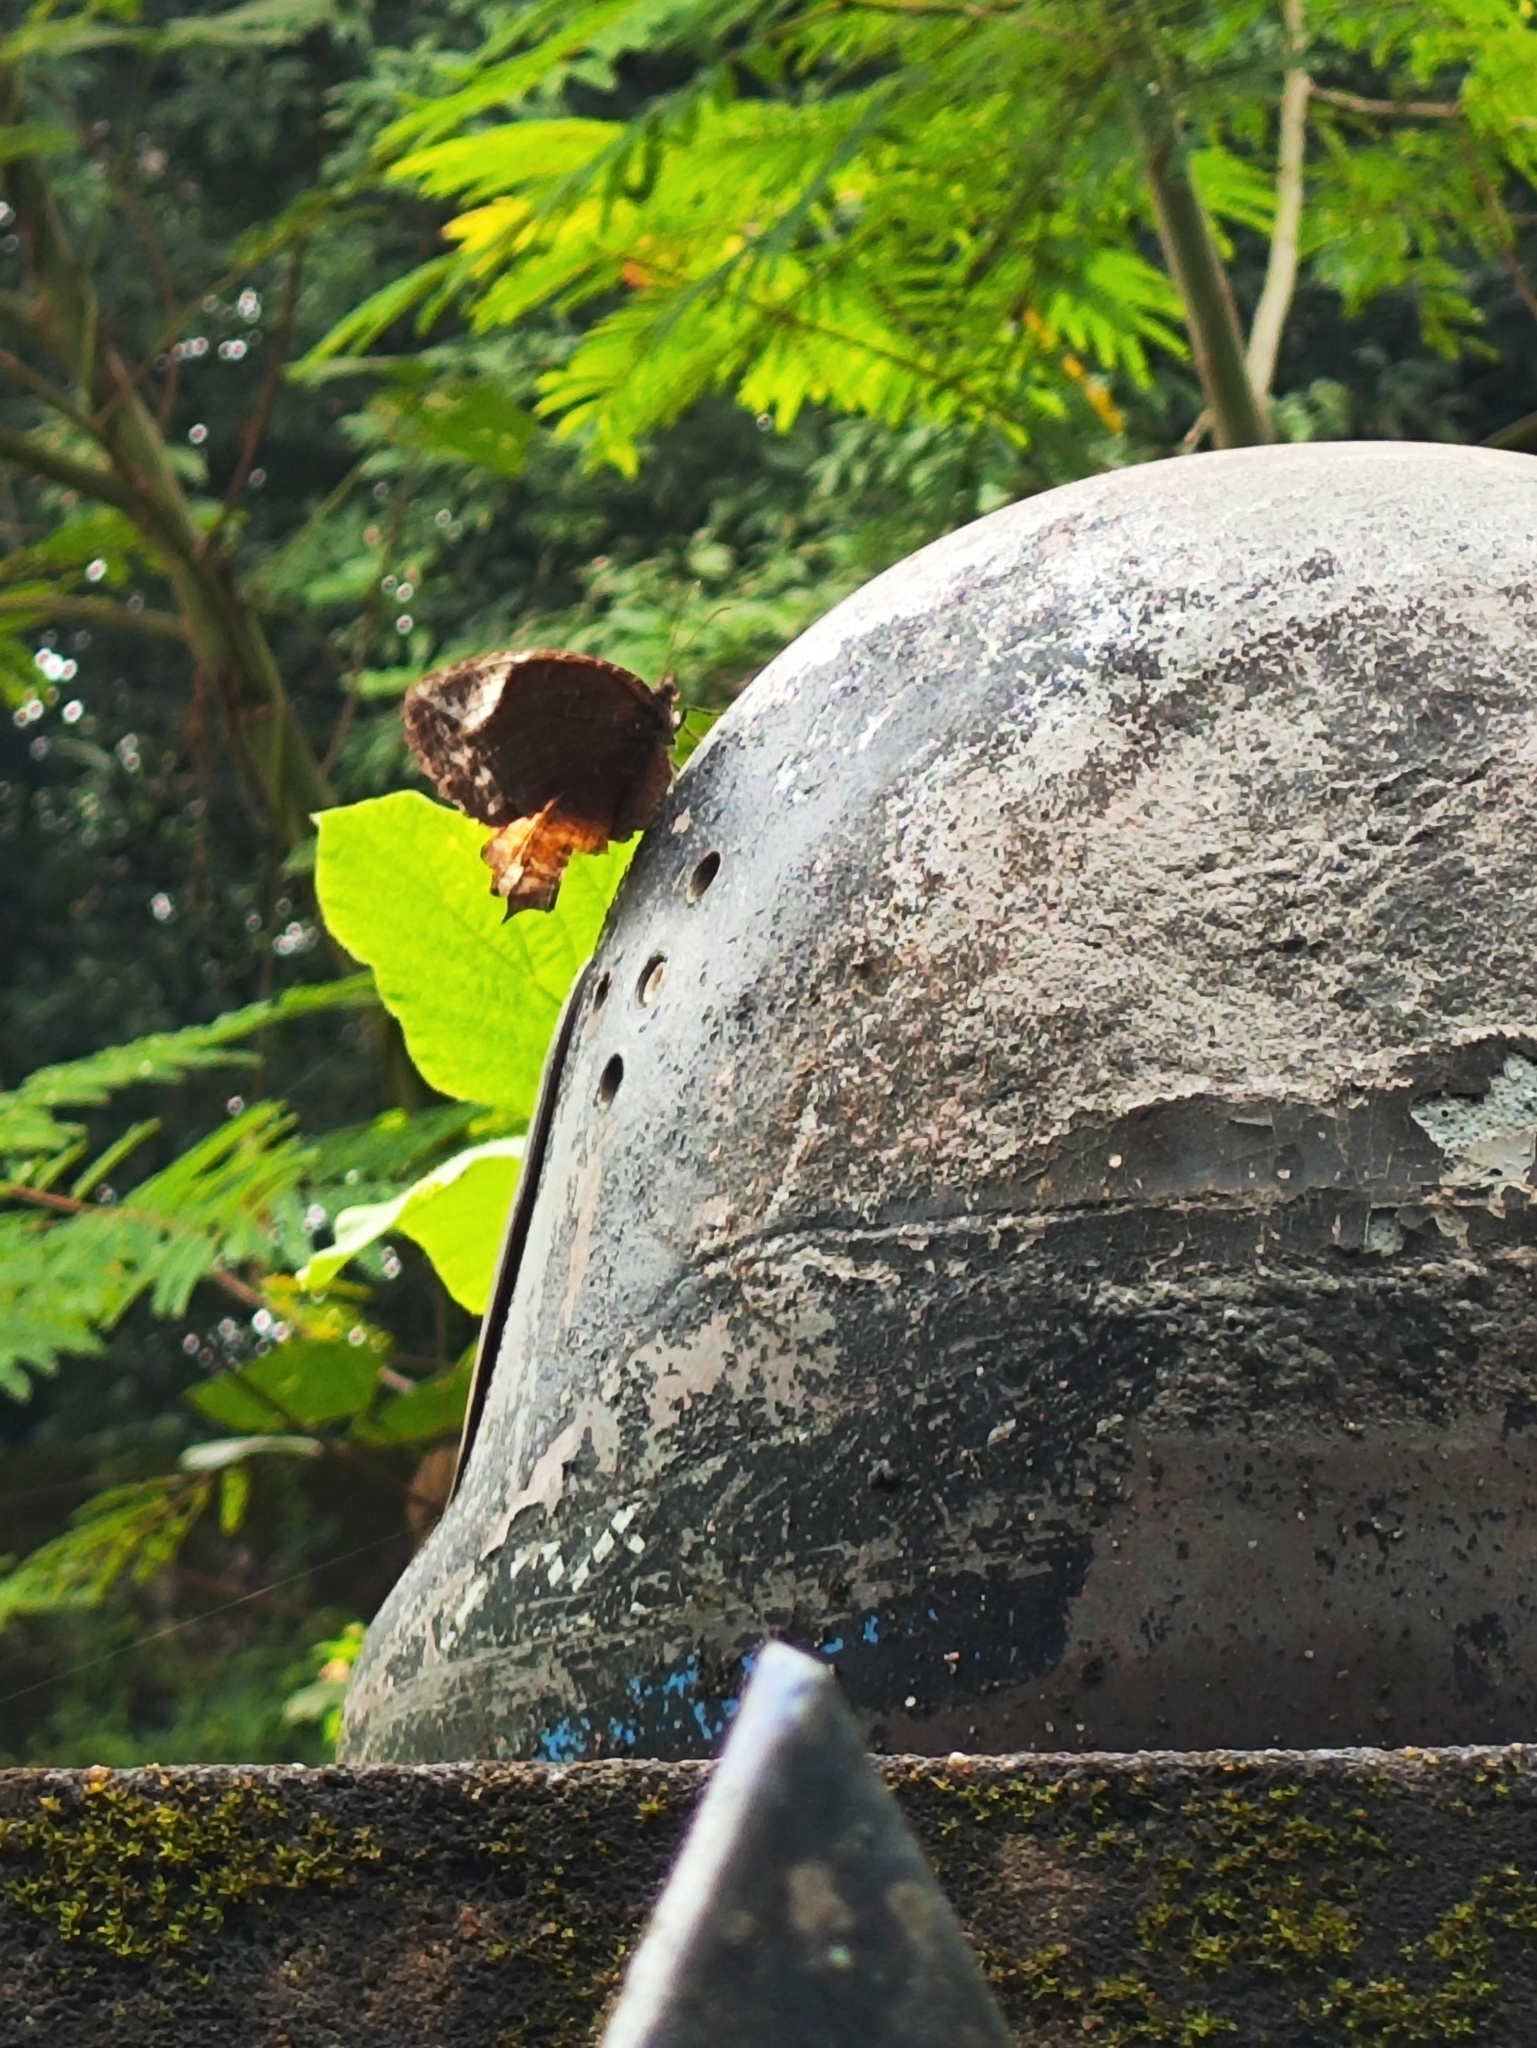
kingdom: Animalia
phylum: Arthropoda
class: Insecta
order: Lepidoptera
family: Nymphalidae
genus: Elymnias
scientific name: Elymnias caudata
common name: Tailed palmfly
